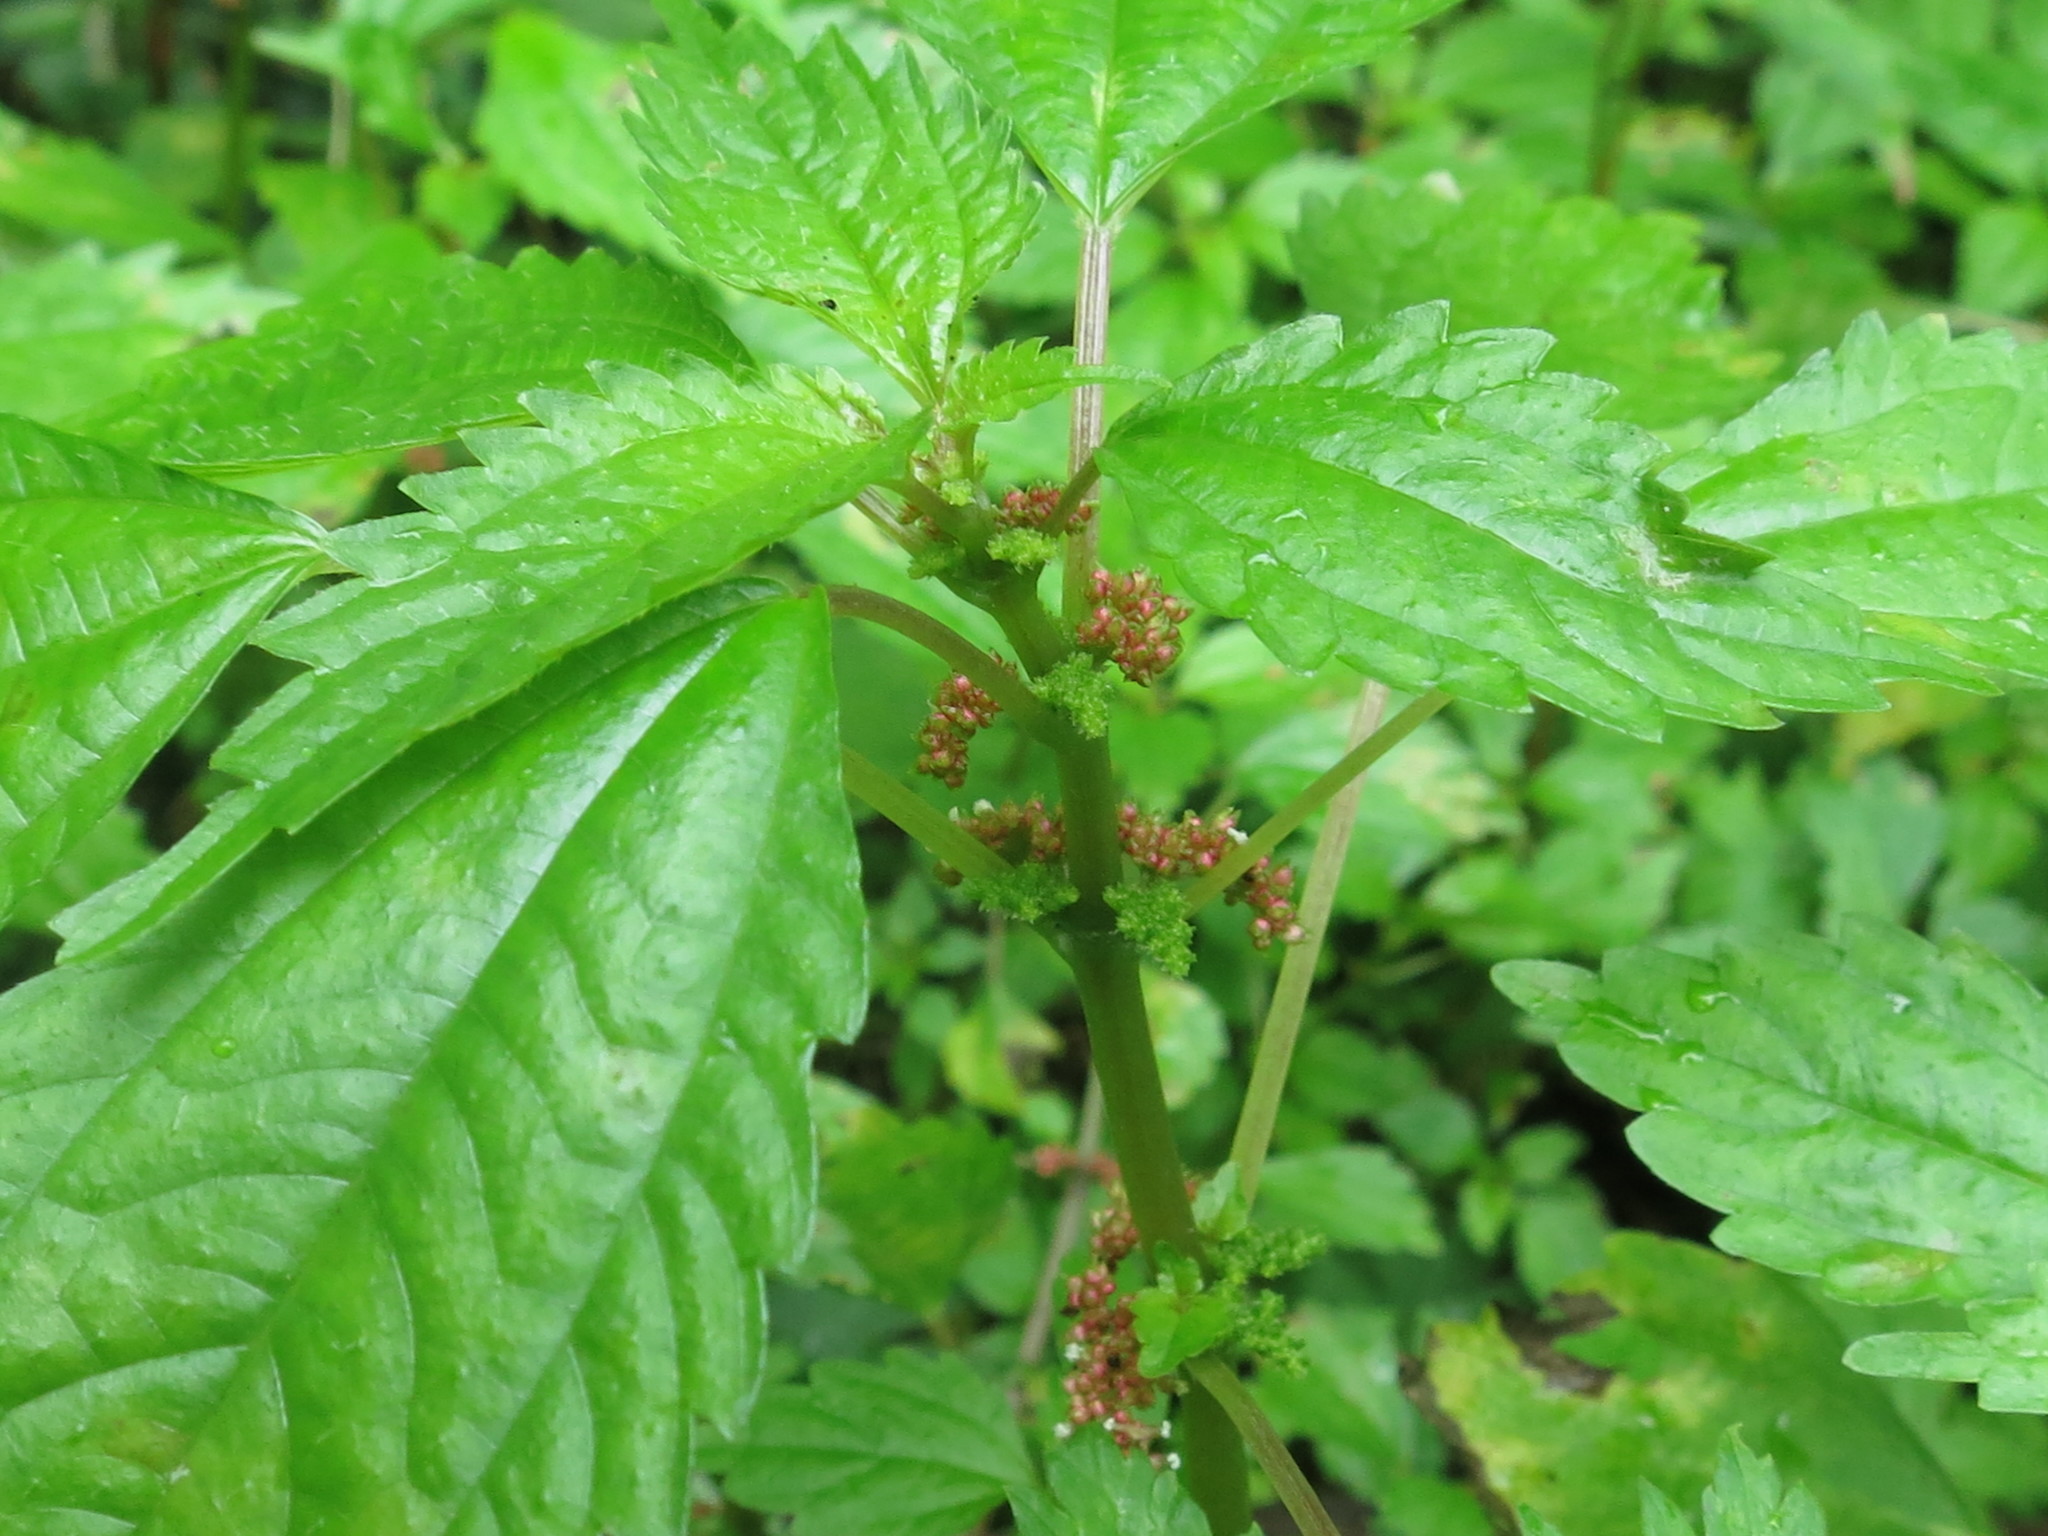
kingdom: Plantae
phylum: Tracheophyta
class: Magnoliopsida
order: Rosales
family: Urticaceae
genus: Pilea
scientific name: Pilea pumila
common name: Clearweed
